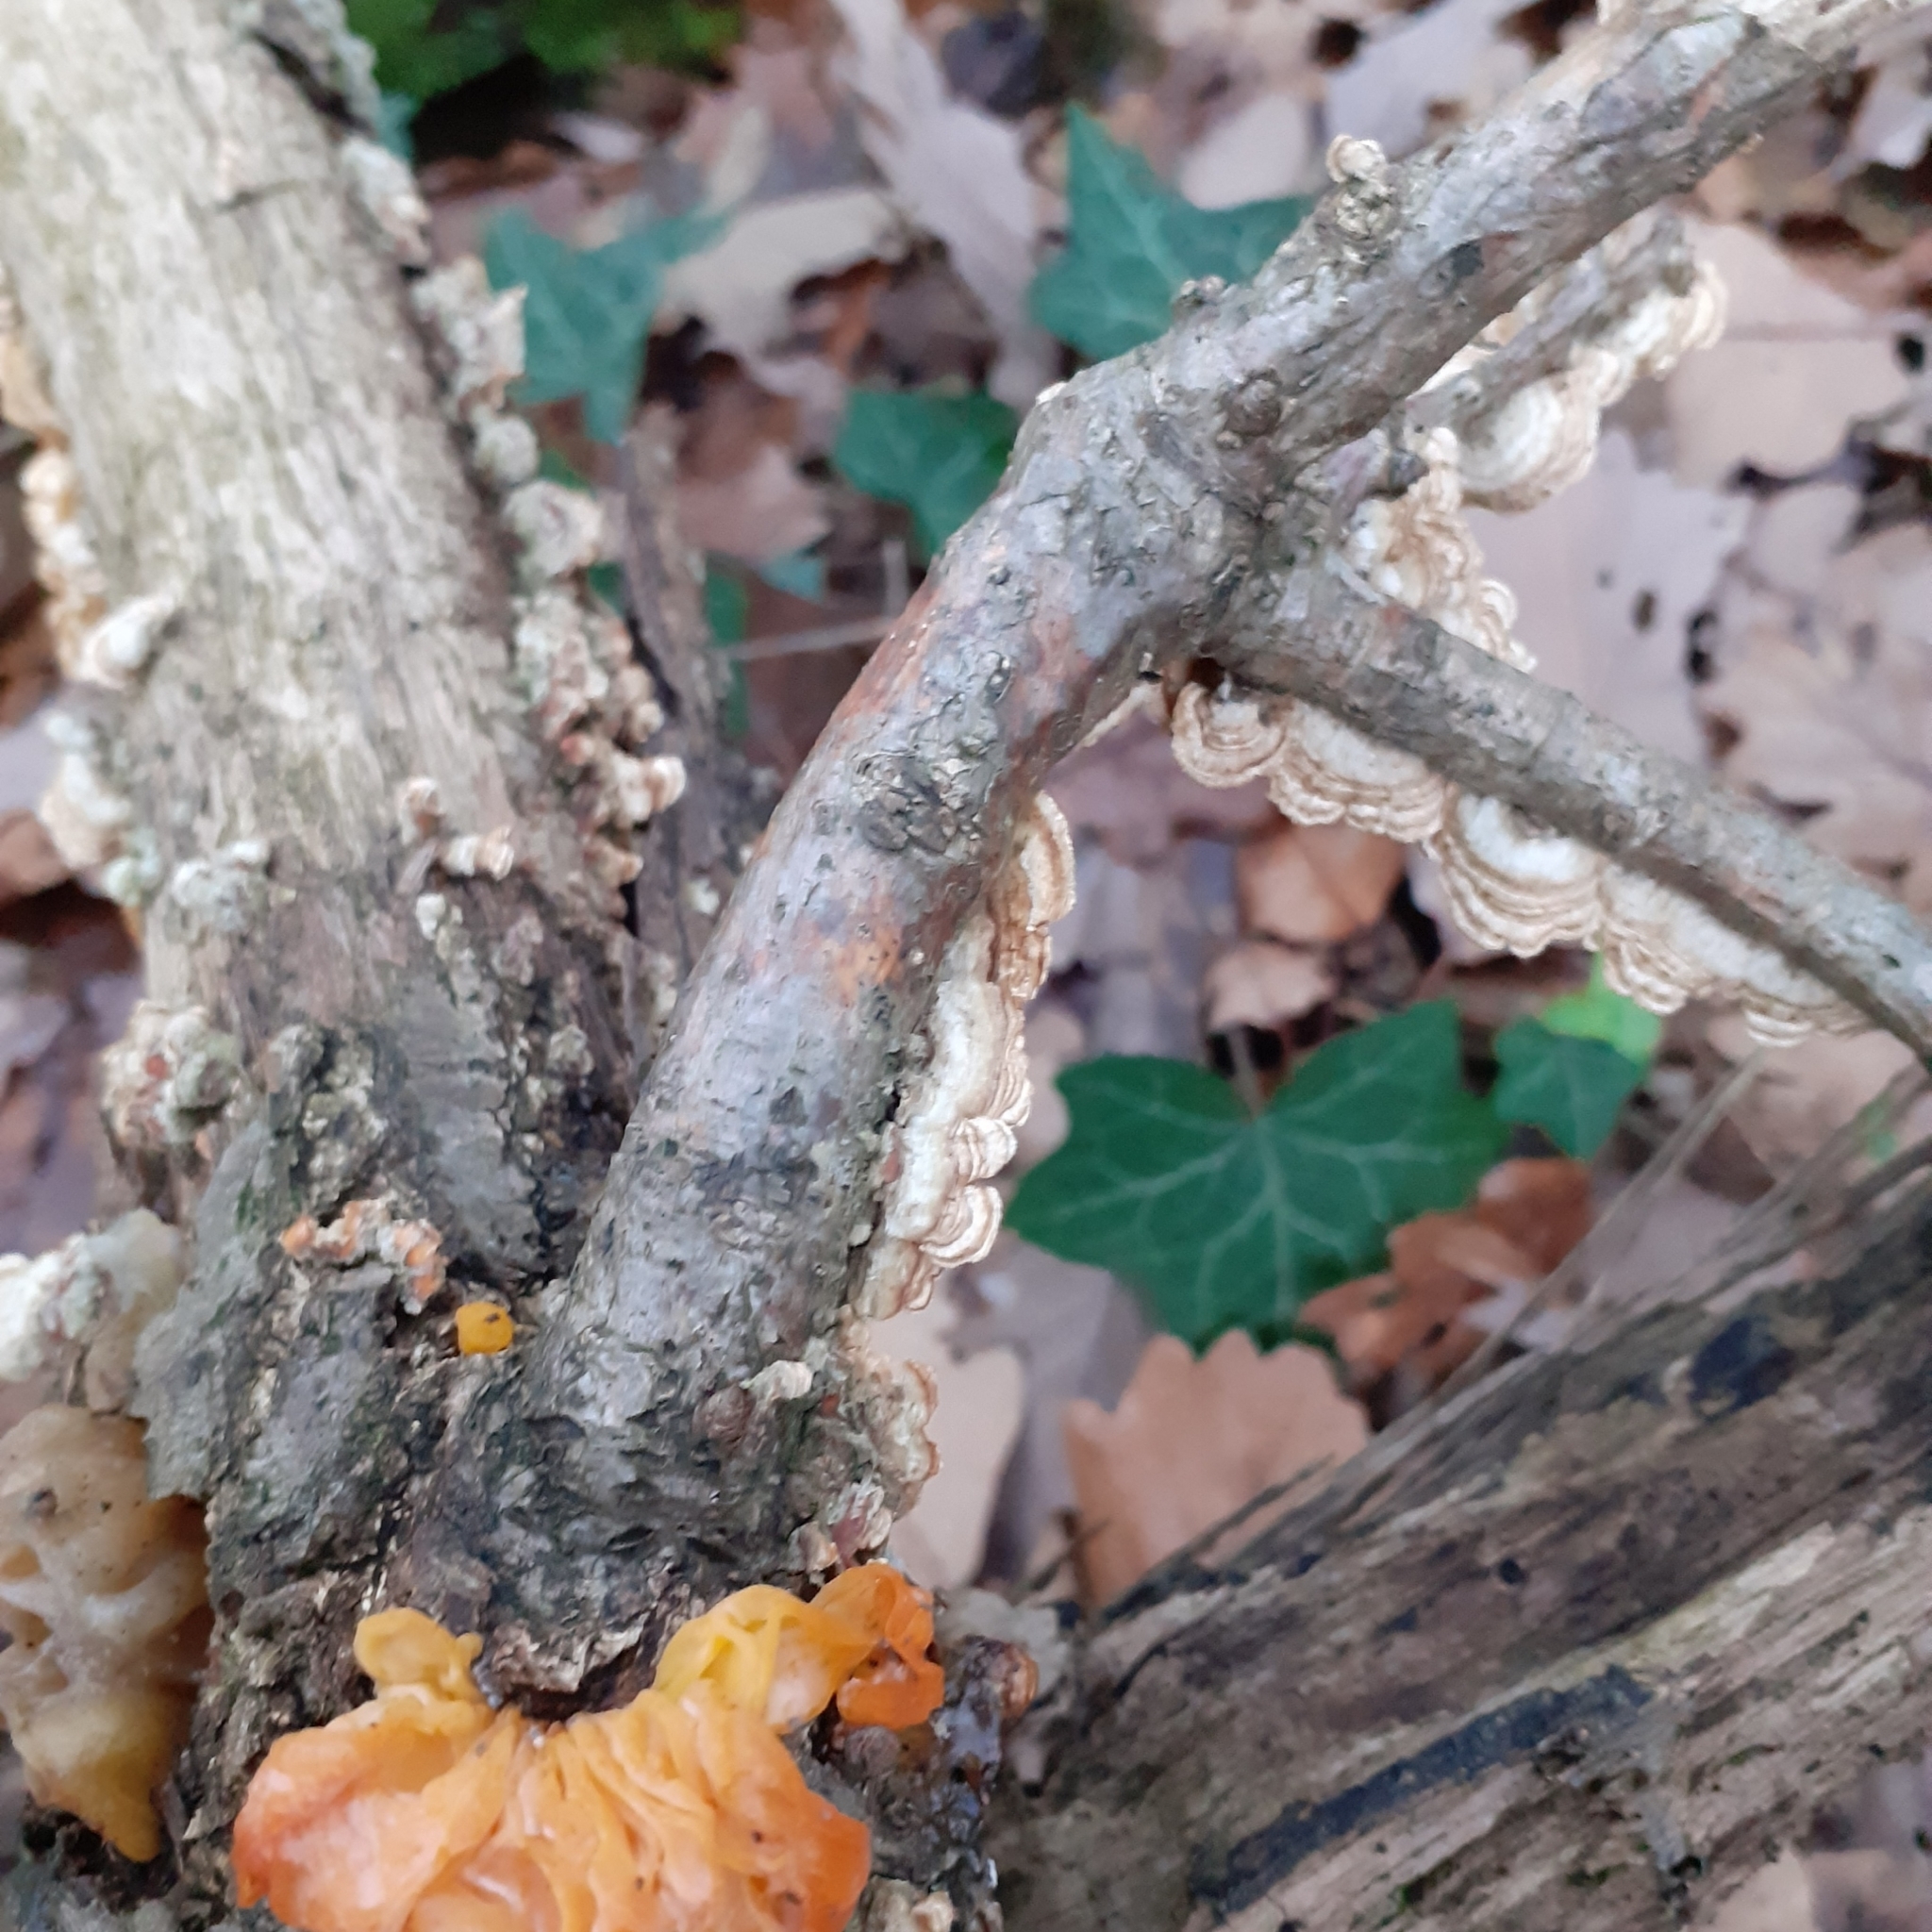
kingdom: Fungi
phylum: Basidiomycota
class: Agaricomycetes
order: Russulales
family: Stereaceae
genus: Stereum
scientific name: Stereum hirsutum
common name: Hairy curtain crust
